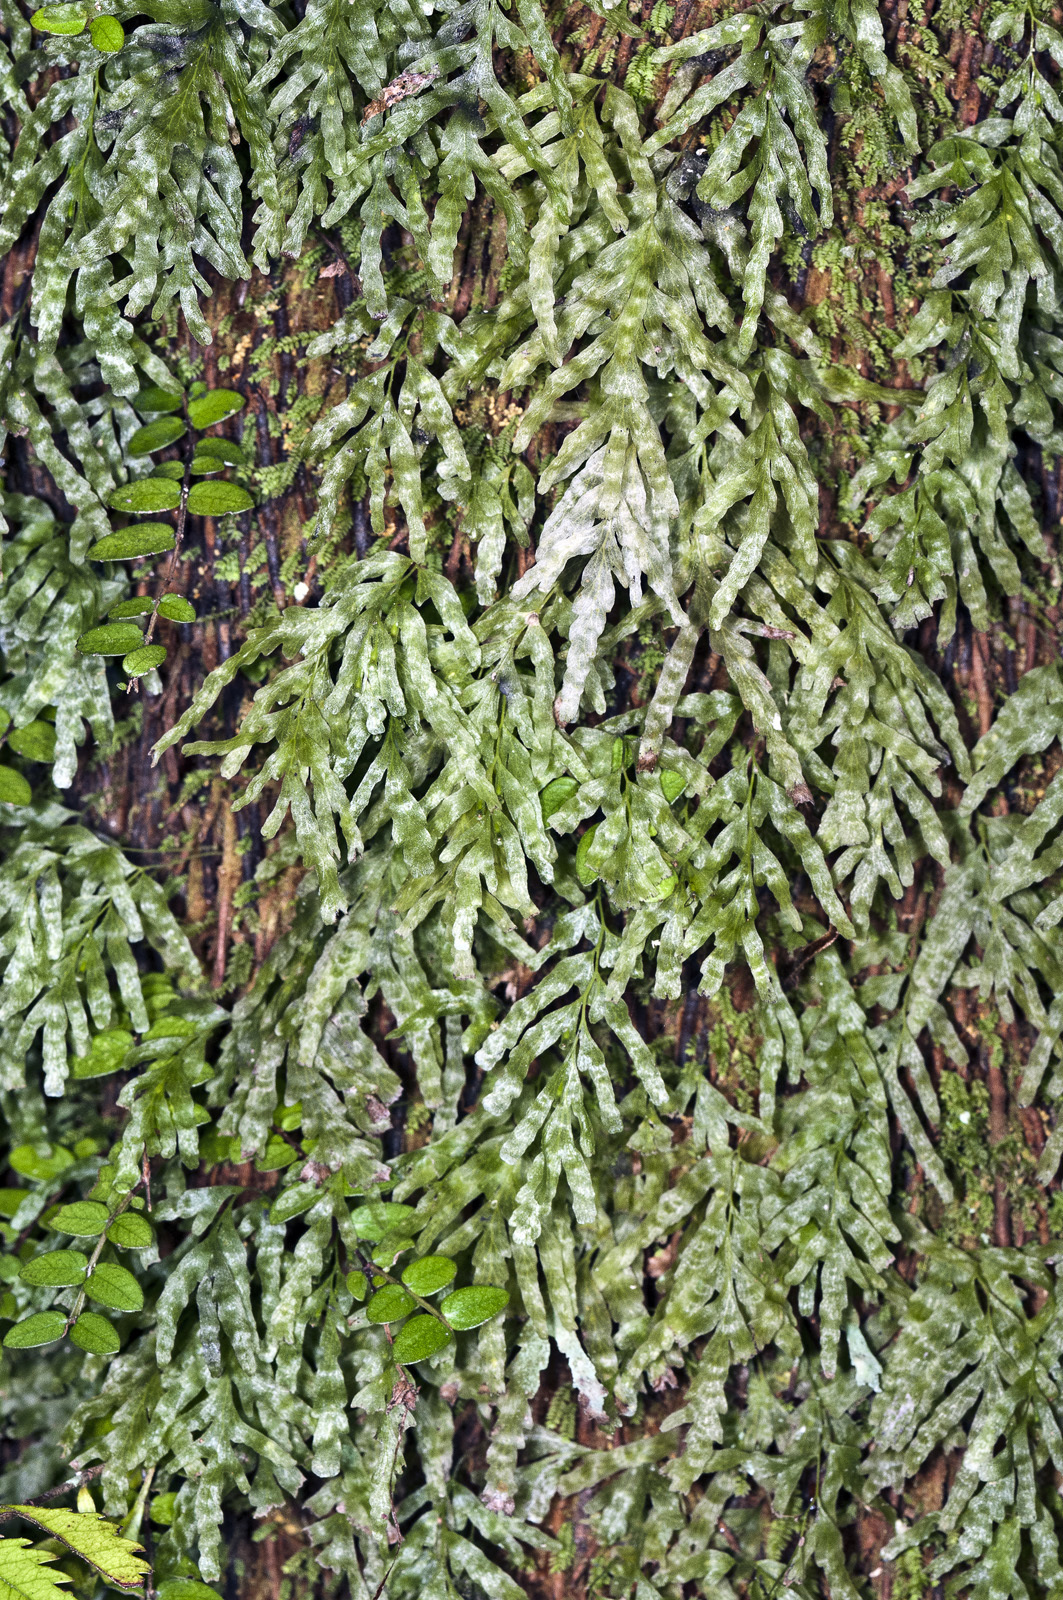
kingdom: Plantae
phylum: Tracheophyta
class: Polypodiopsida
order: Hymenophyllales
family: Hymenophyllaceae
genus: Polyphlebium
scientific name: Polyphlebium venosum
